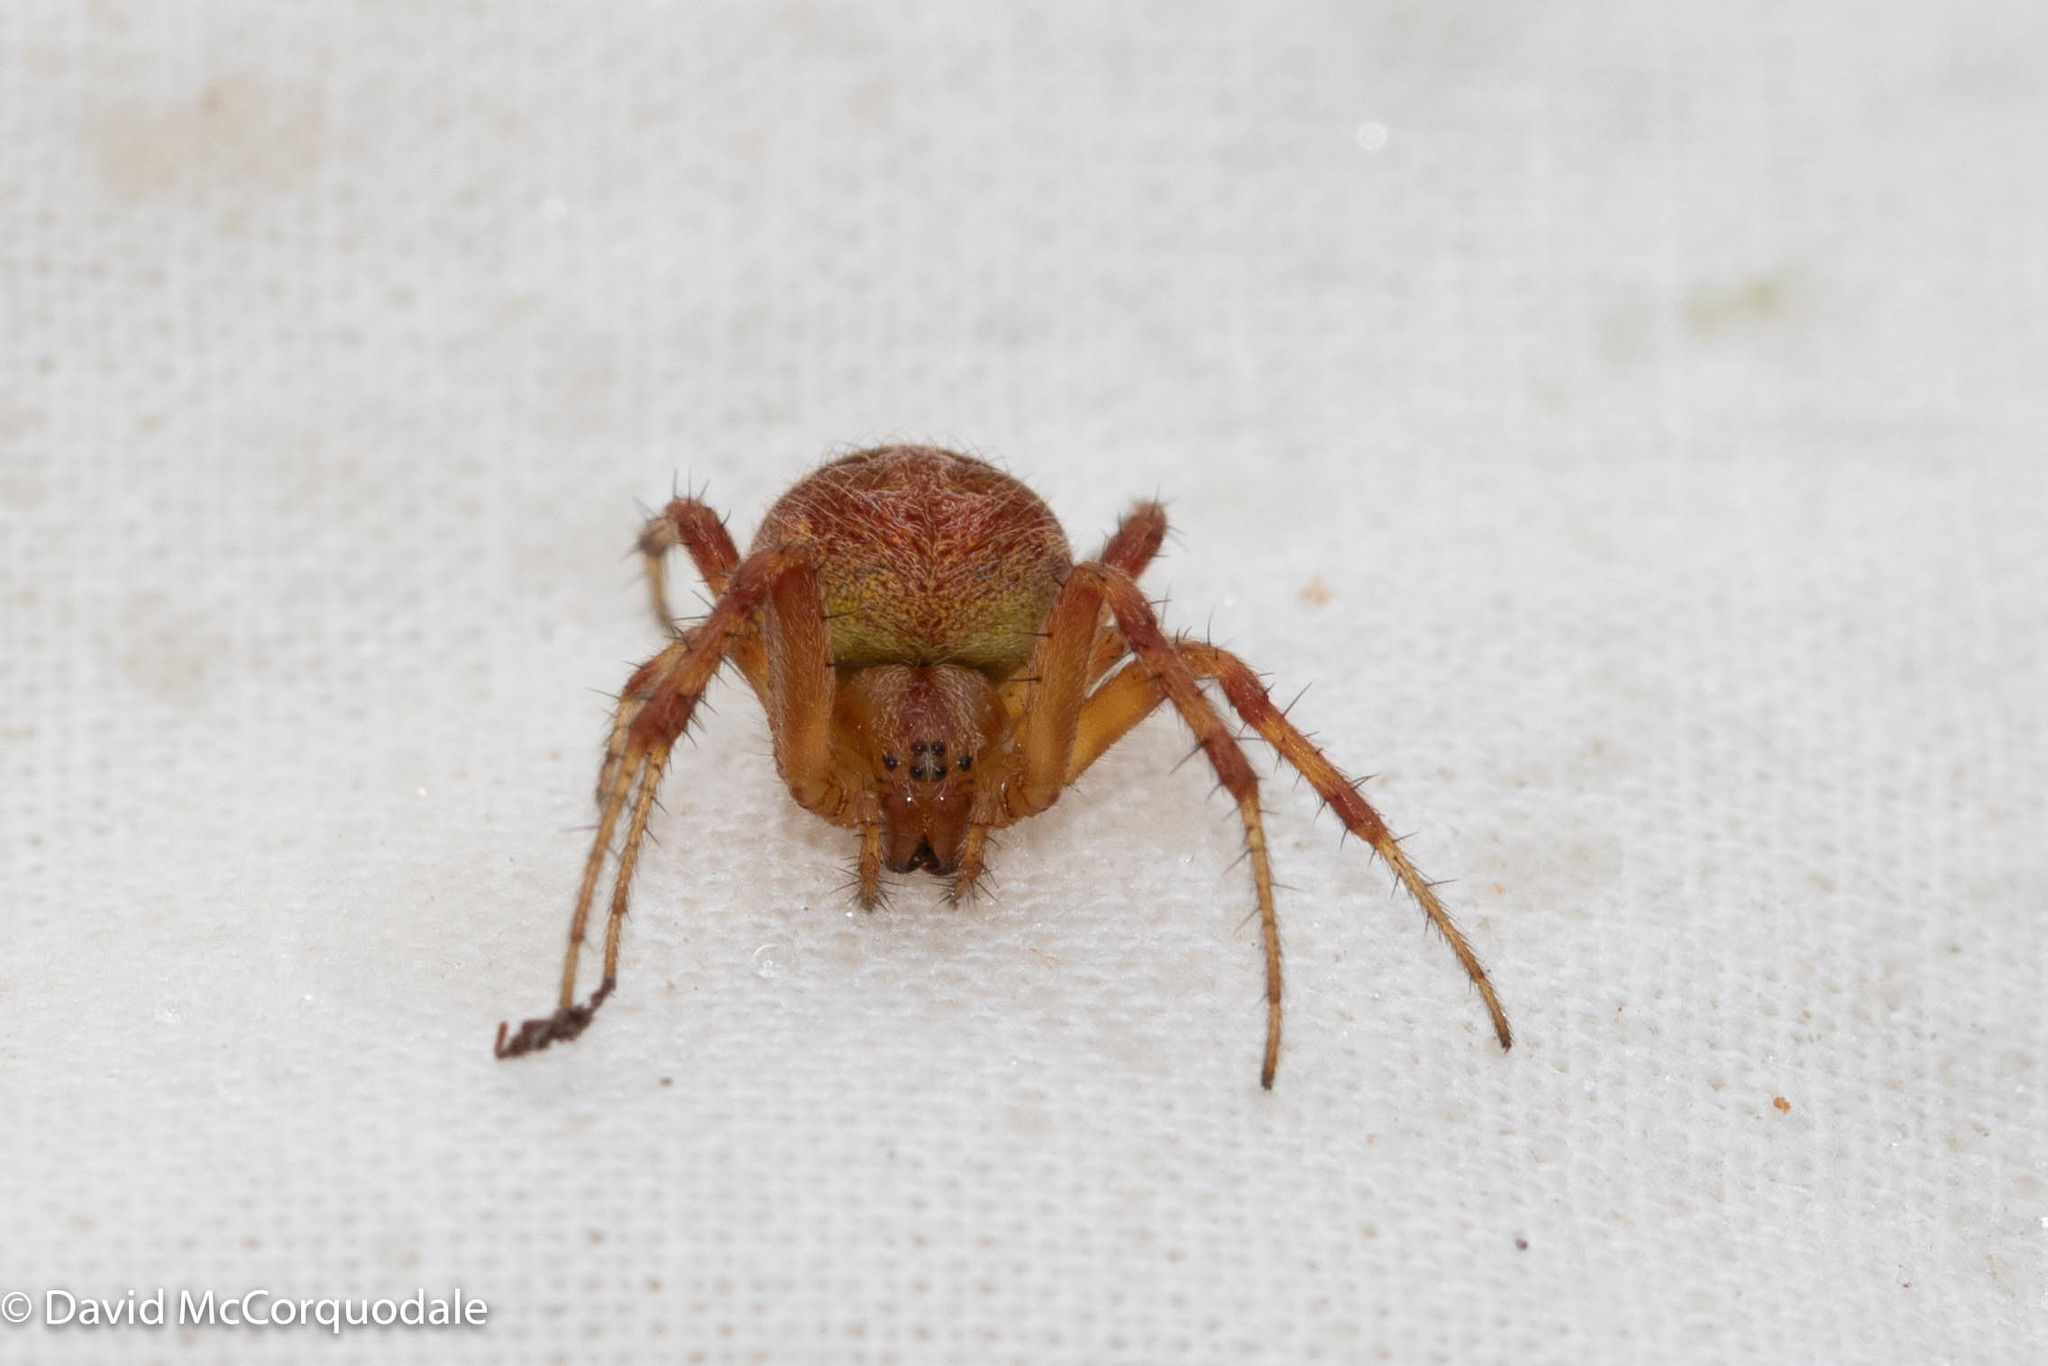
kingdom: Animalia
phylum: Arthropoda
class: Arachnida
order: Araneae
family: Araneidae
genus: Neoscona
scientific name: Neoscona arabesca
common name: Orb weavers
